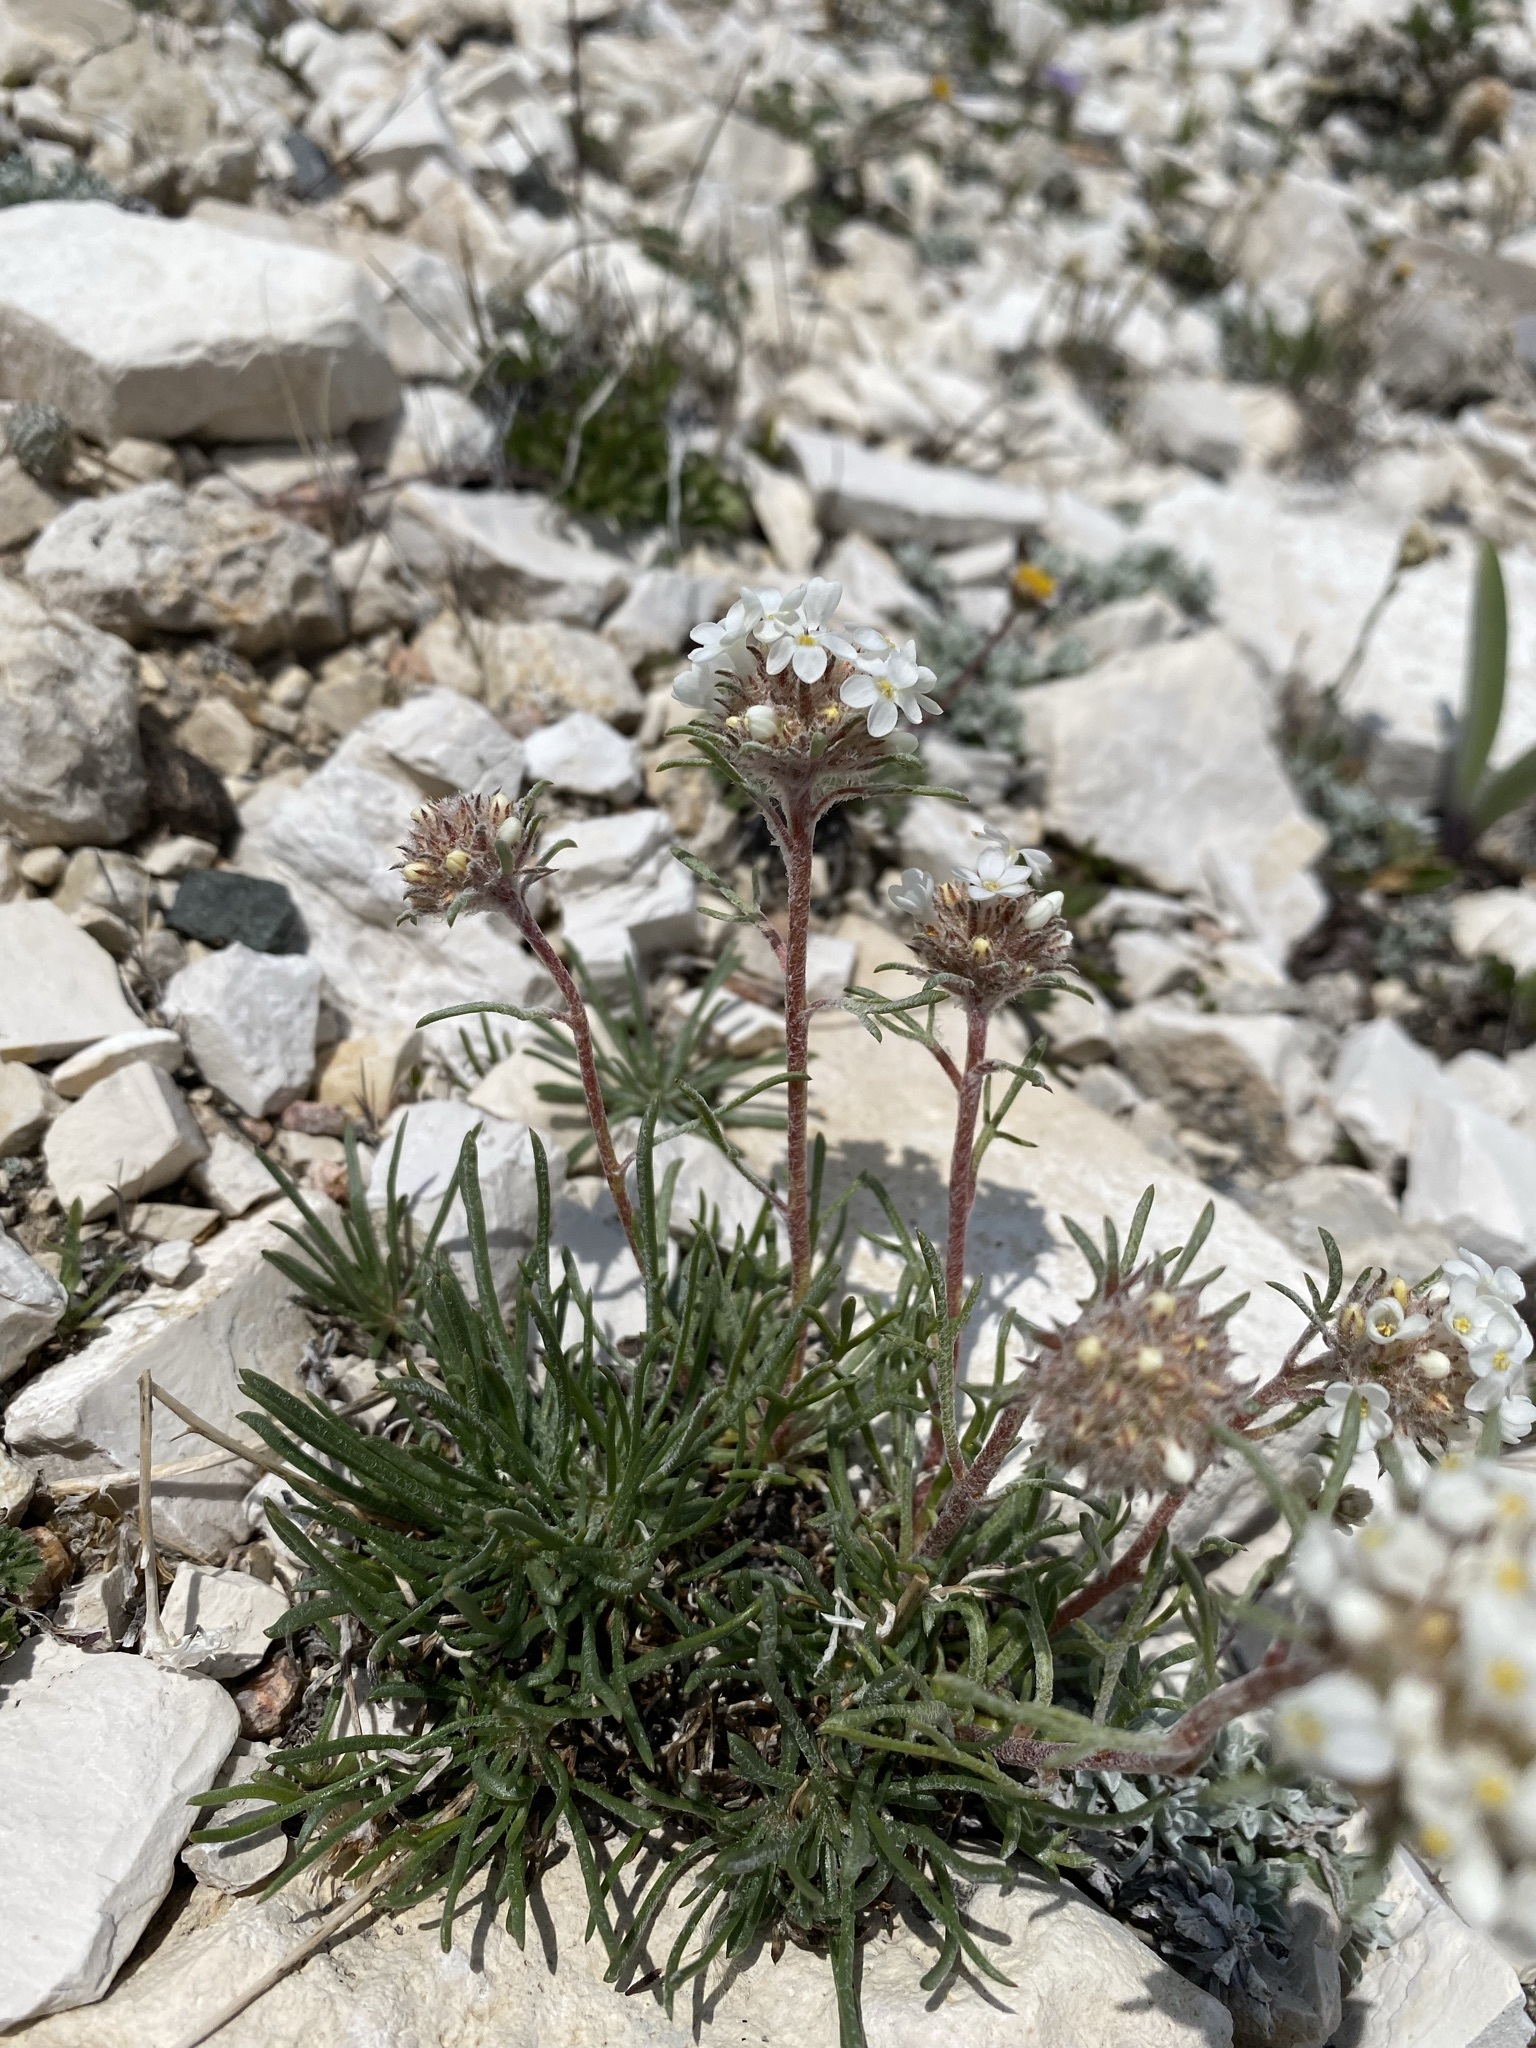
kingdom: Plantae
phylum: Tracheophyta
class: Magnoliopsida
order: Ericales
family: Polemoniaceae
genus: Ipomopsis
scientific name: Ipomopsis spicata
